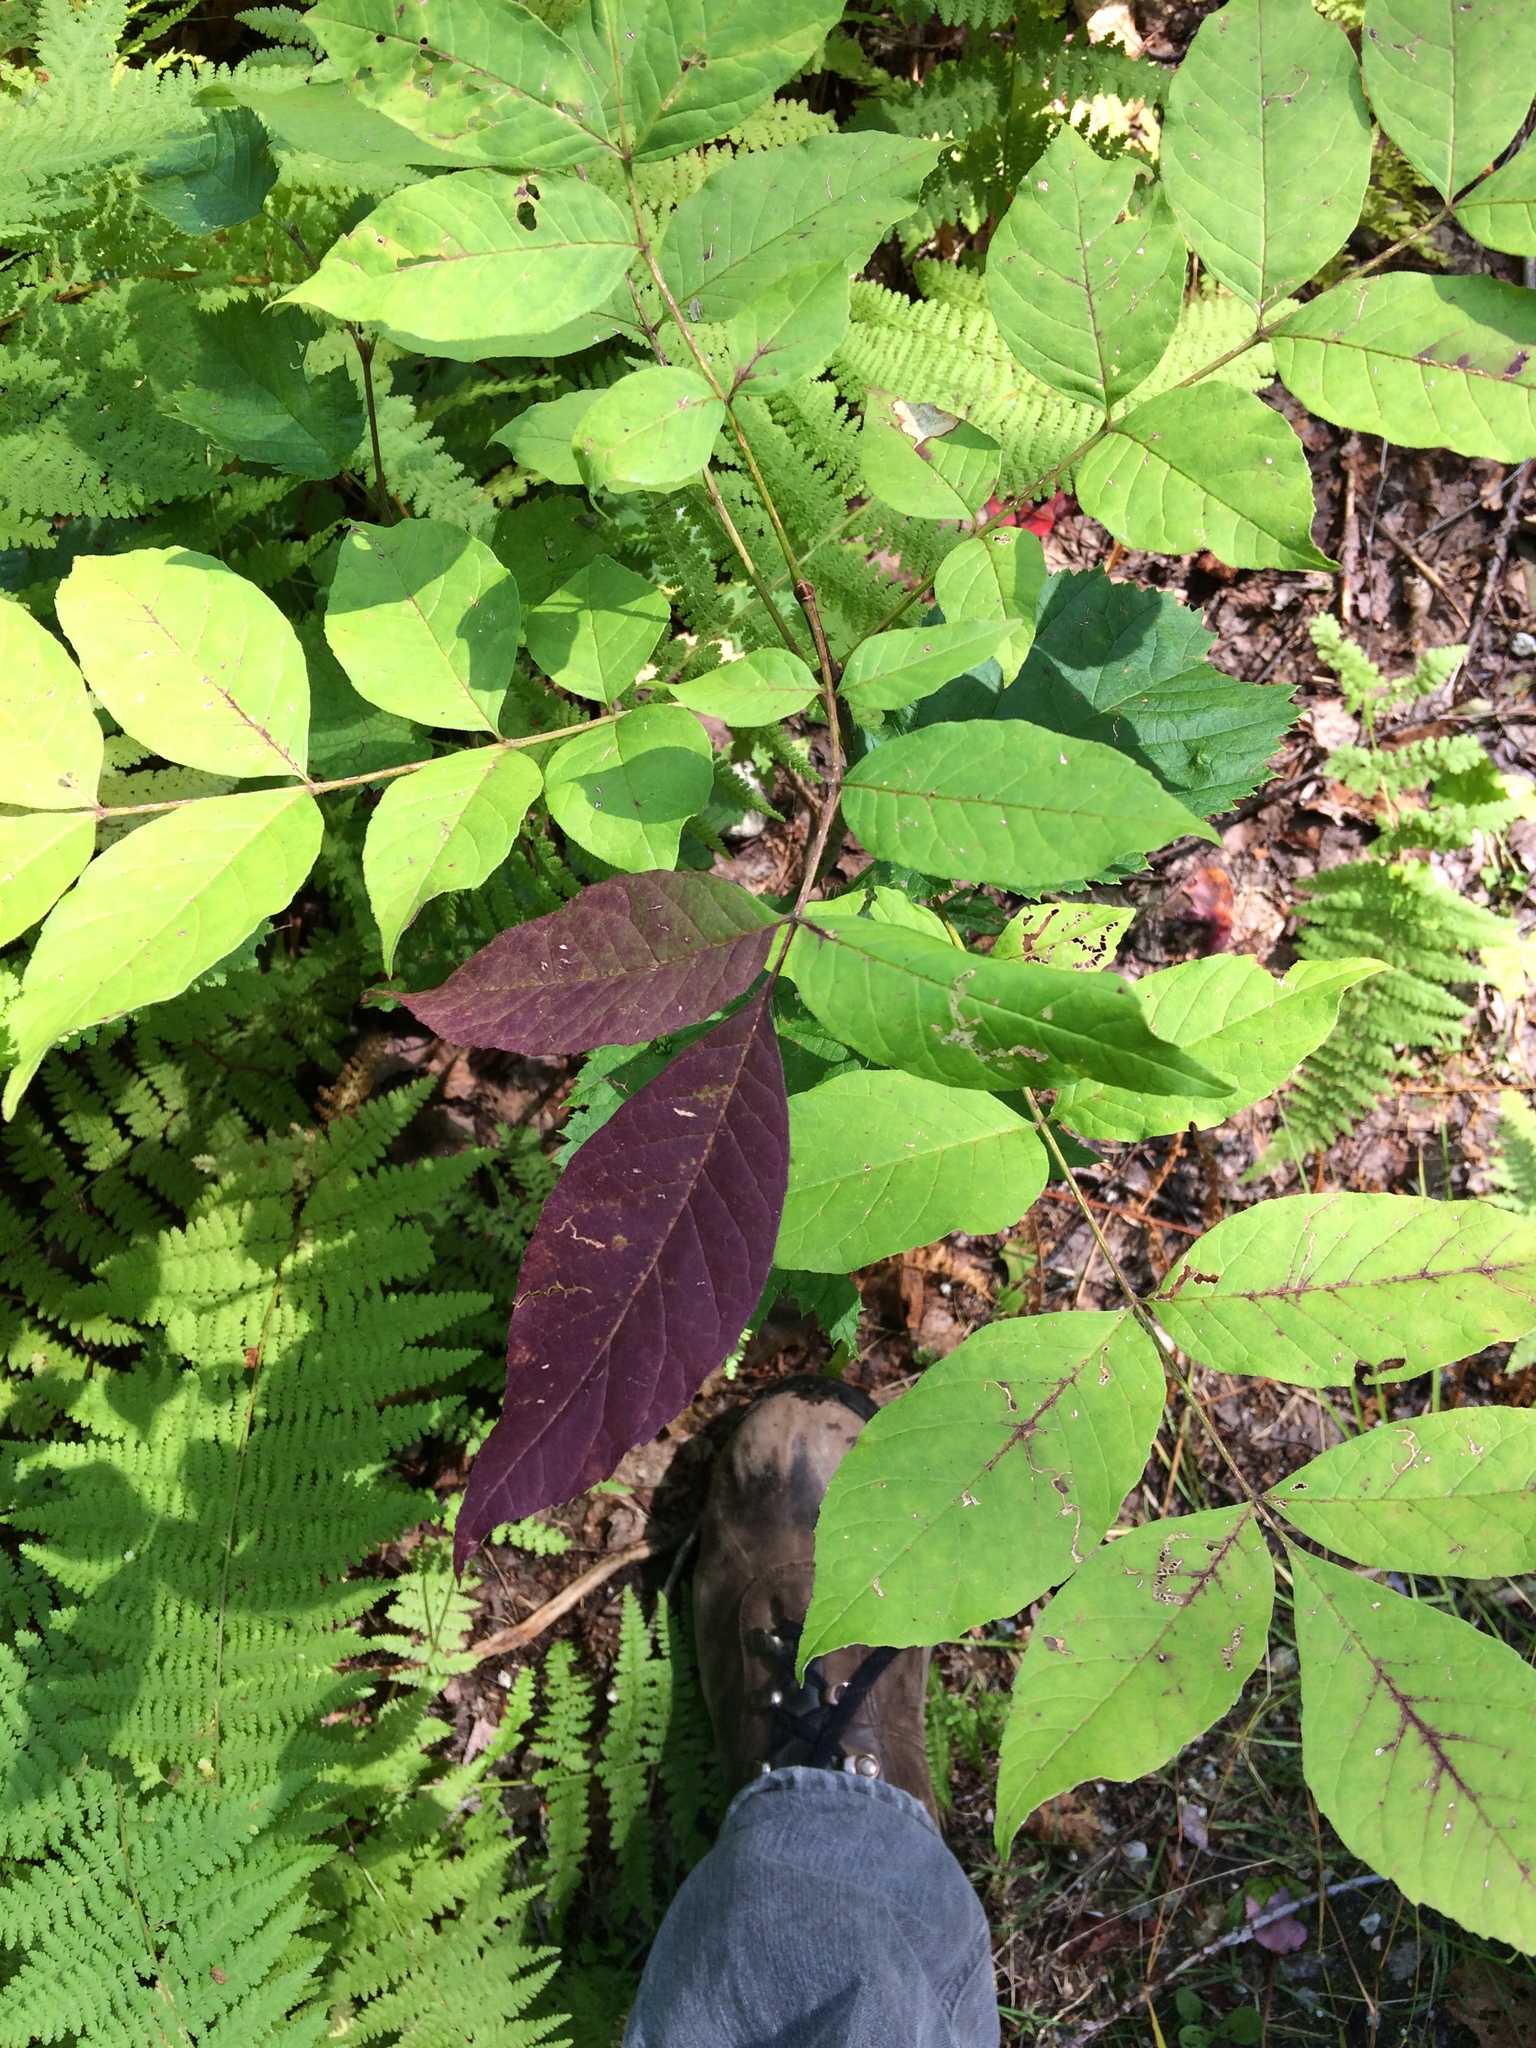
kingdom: Plantae
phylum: Tracheophyta
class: Magnoliopsida
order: Lamiales
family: Oleaceae
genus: Fraxinus
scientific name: Fraxinus americana
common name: White ash
